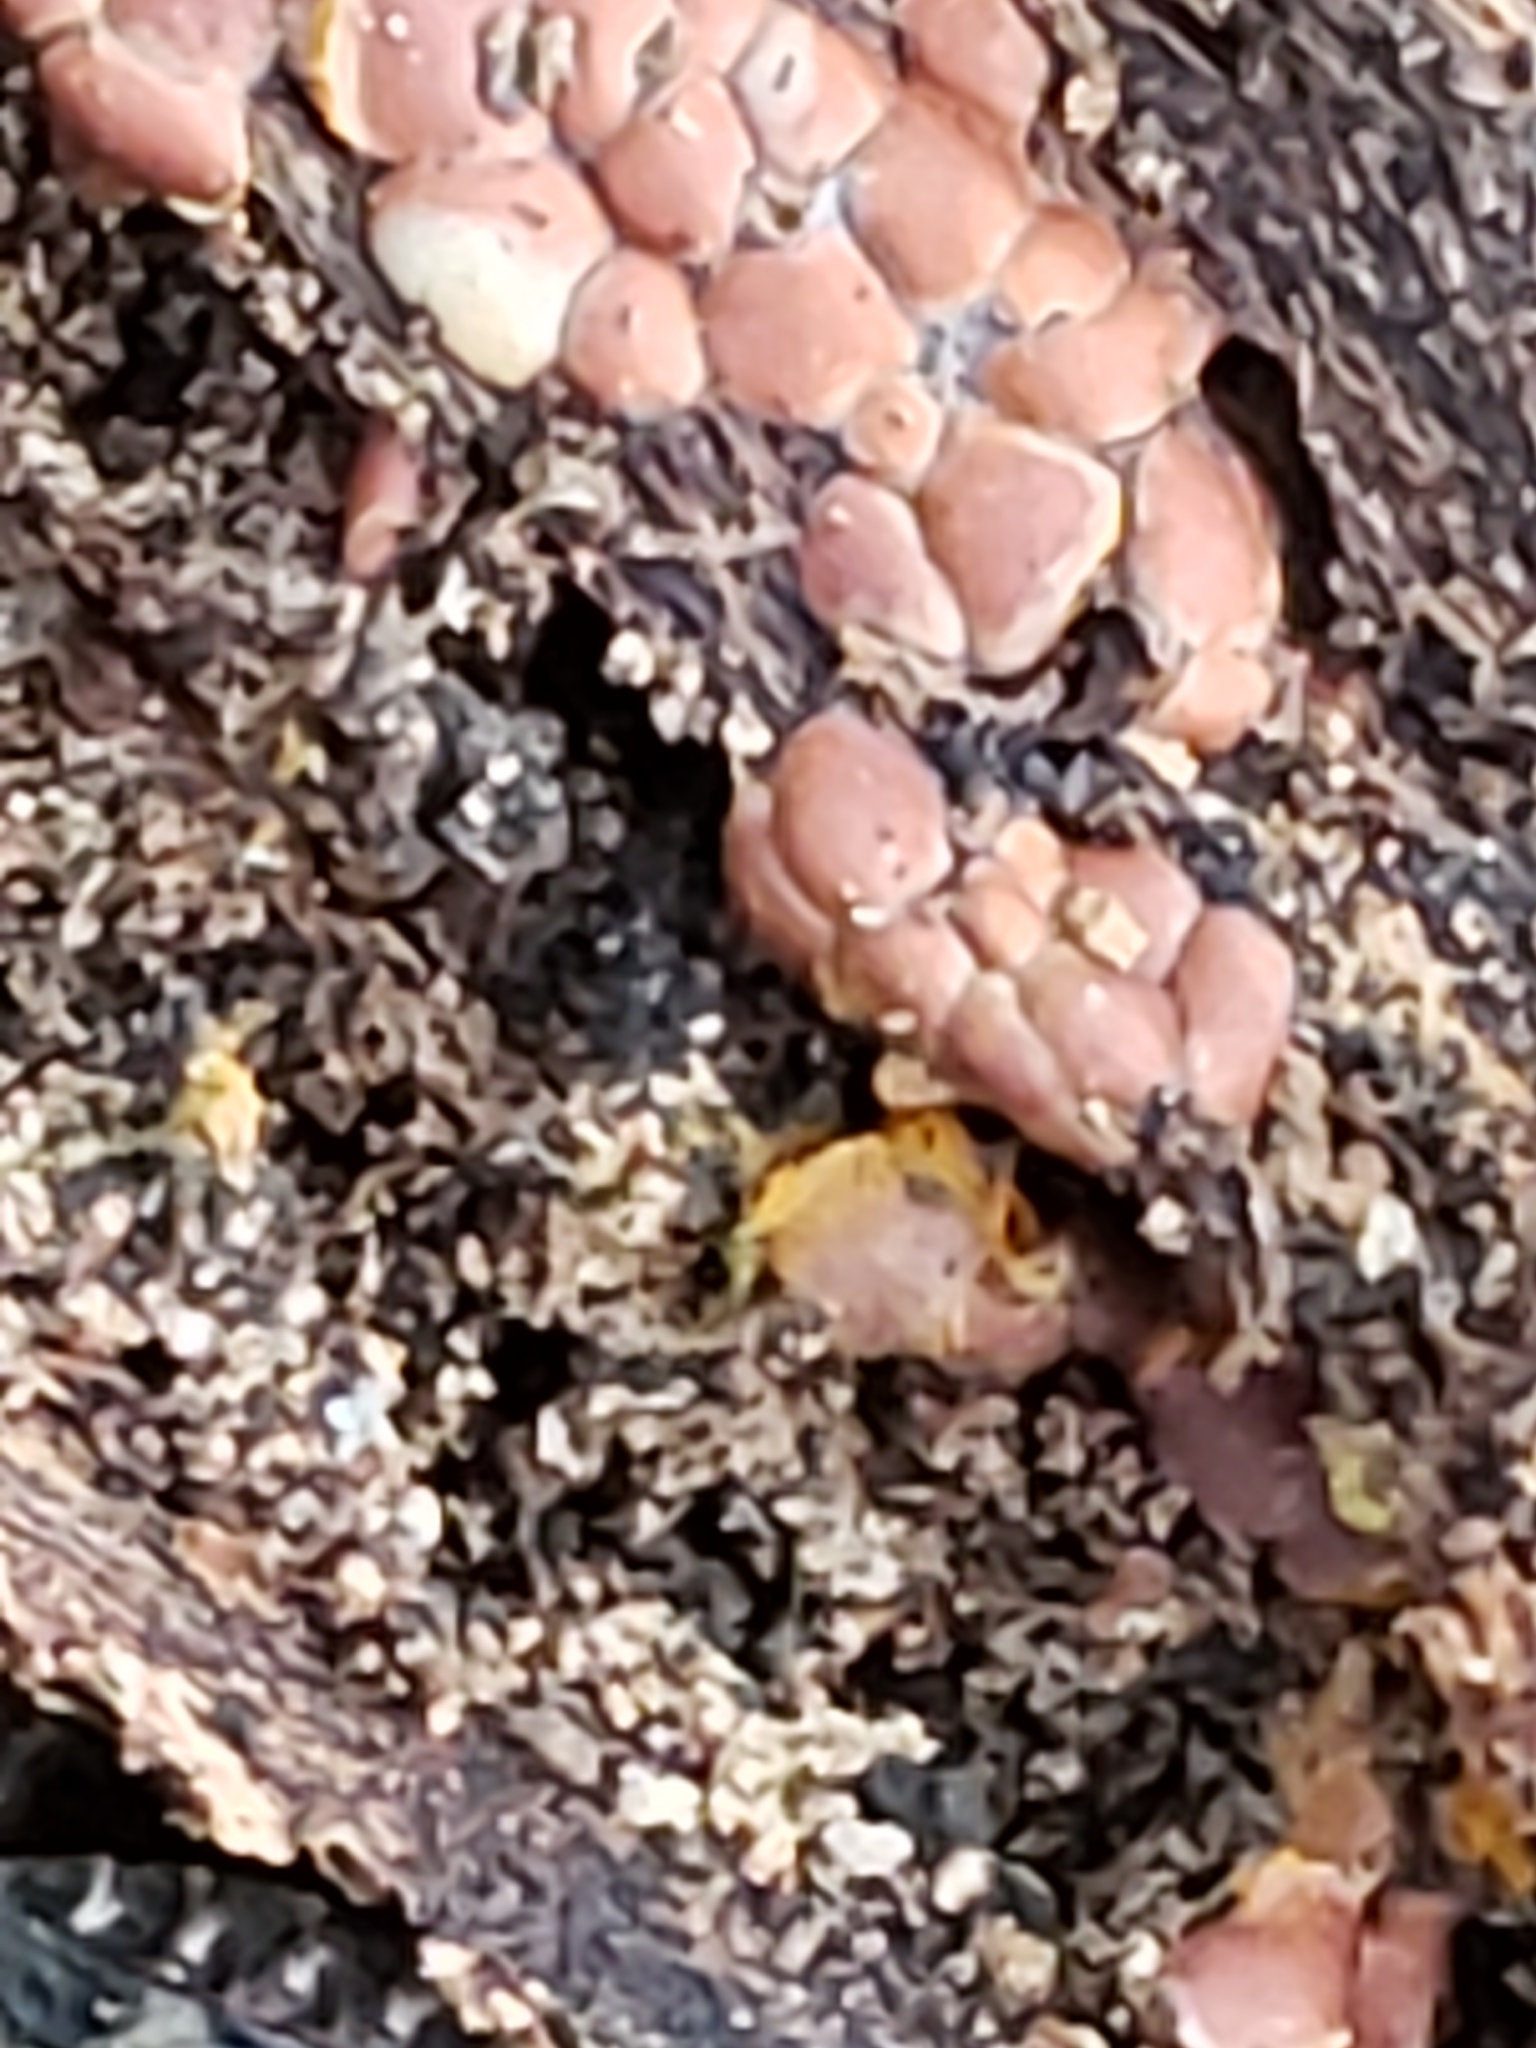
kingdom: Protozoa
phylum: Mycetozoa
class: Myxomycetes
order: Trichiales
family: Trichiaceae
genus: Perichaena
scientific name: Perichaena depressa
